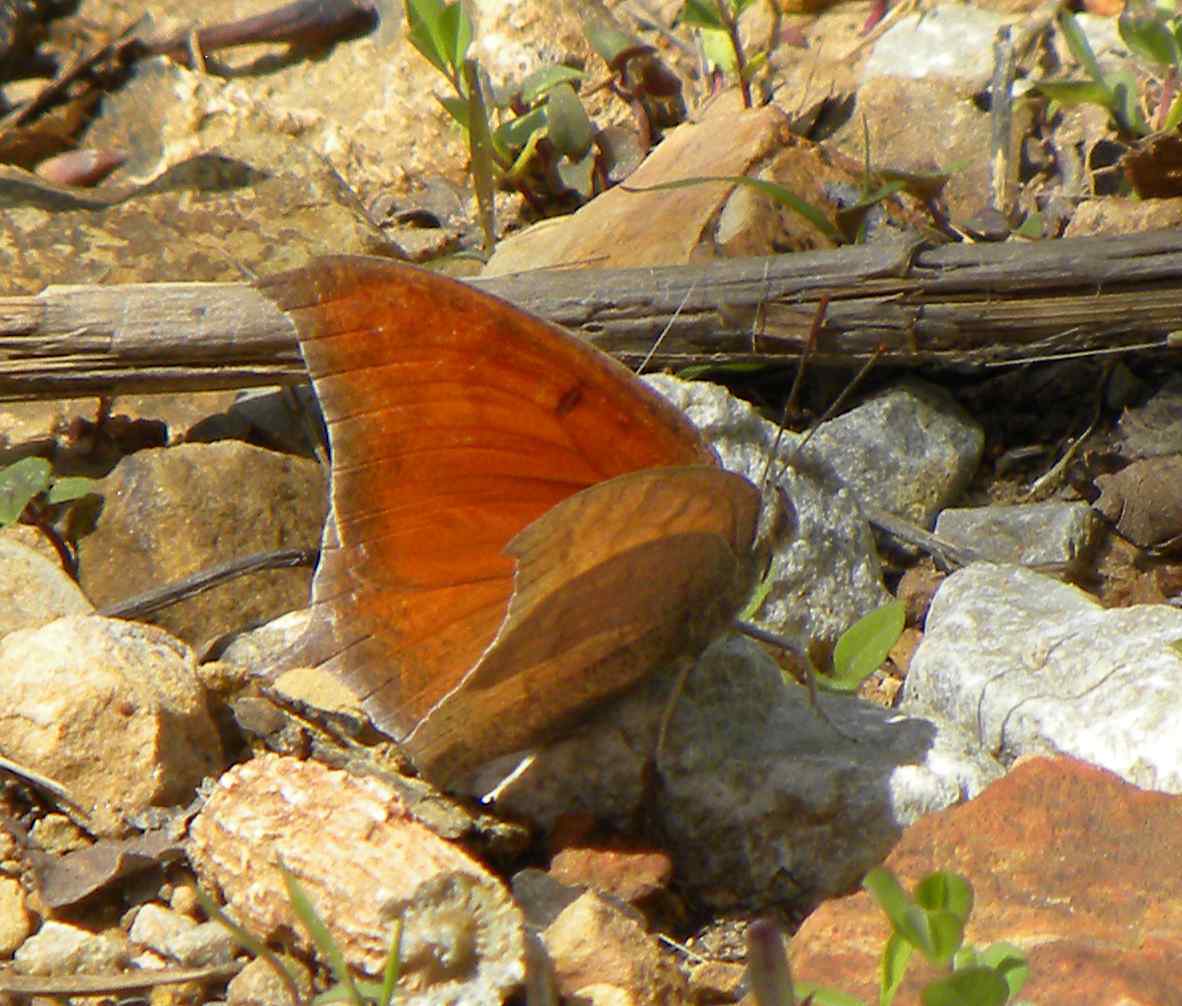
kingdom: Animalia
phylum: Arthropoda
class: Insecta
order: Lepidoptera
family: Nymphalidae
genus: Anaea
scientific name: Anaea andria
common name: Goatweed leafwing
